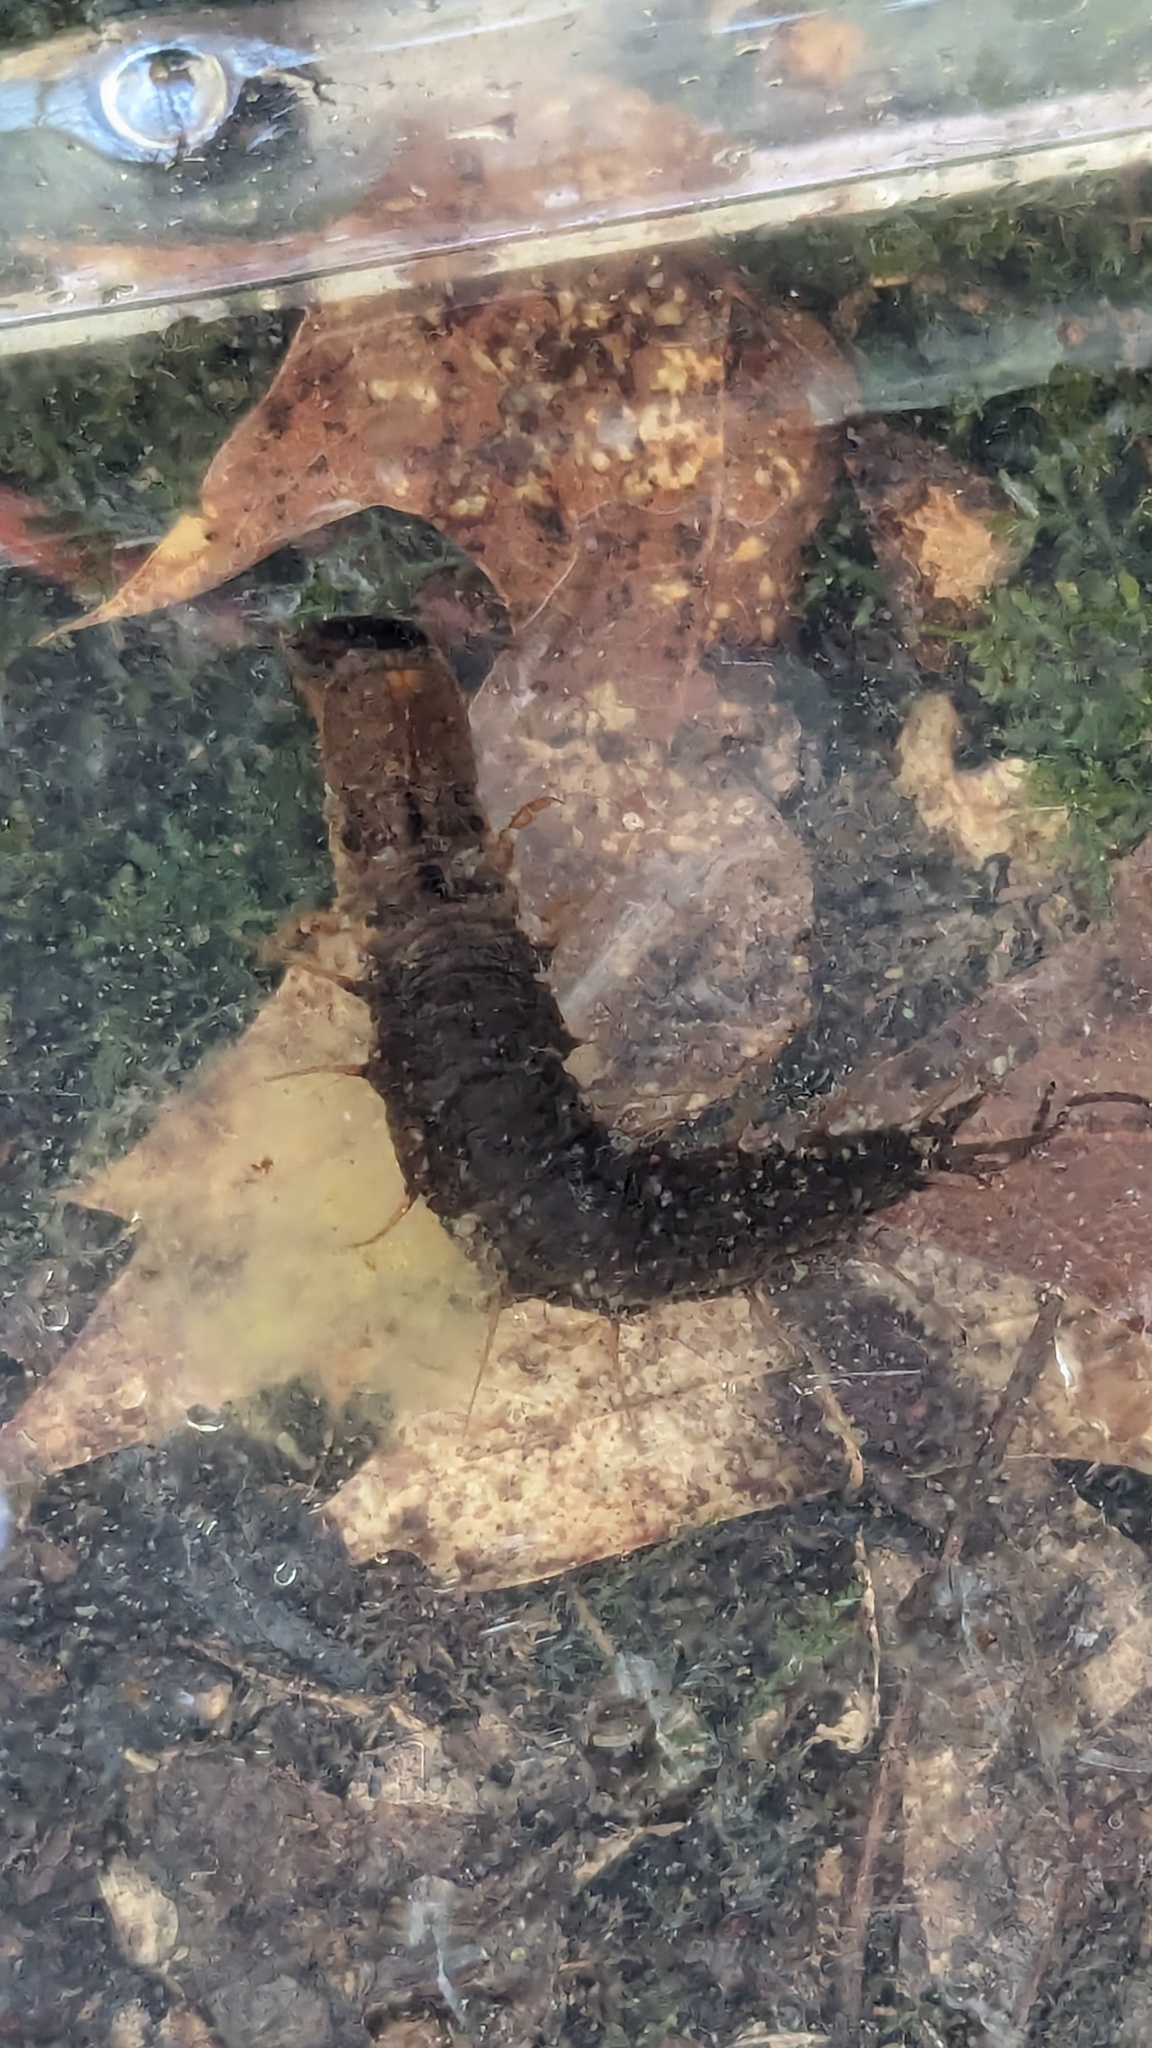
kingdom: Animalia
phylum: Arthropoda
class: Insecta
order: Megaloptera
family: Corydalidae
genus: Chauliodes
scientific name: Chauliodes rastricornis
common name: Spring fishfly
